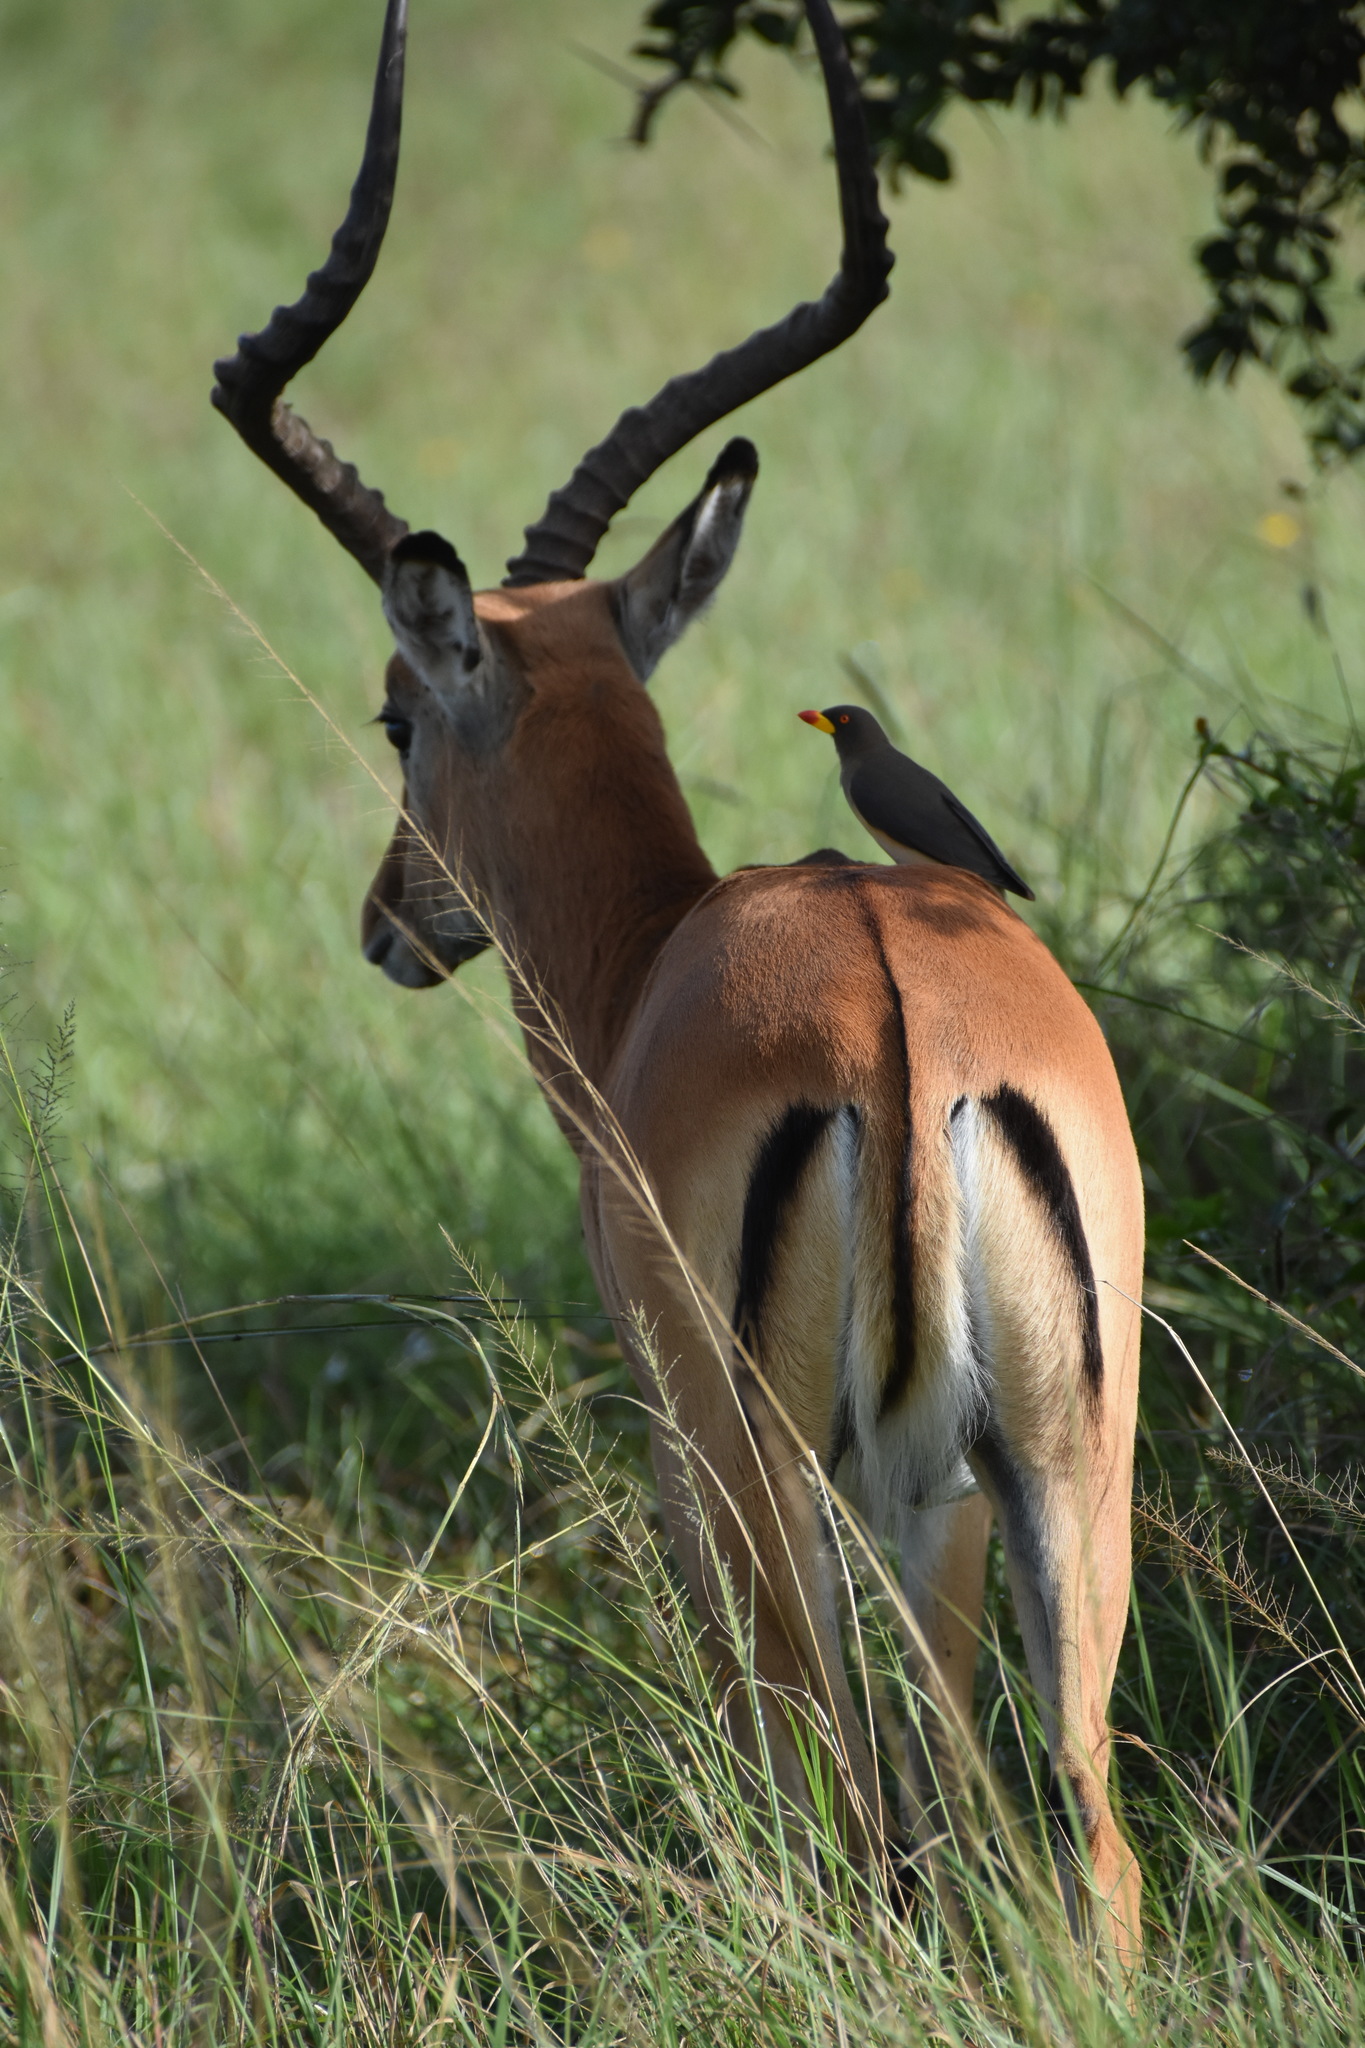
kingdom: Animalia
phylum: Chordata
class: Aves
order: Passeriformes
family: Buphagidae
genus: Buphagus
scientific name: Buphagus africanus
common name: Yellow-billed oxpecker
